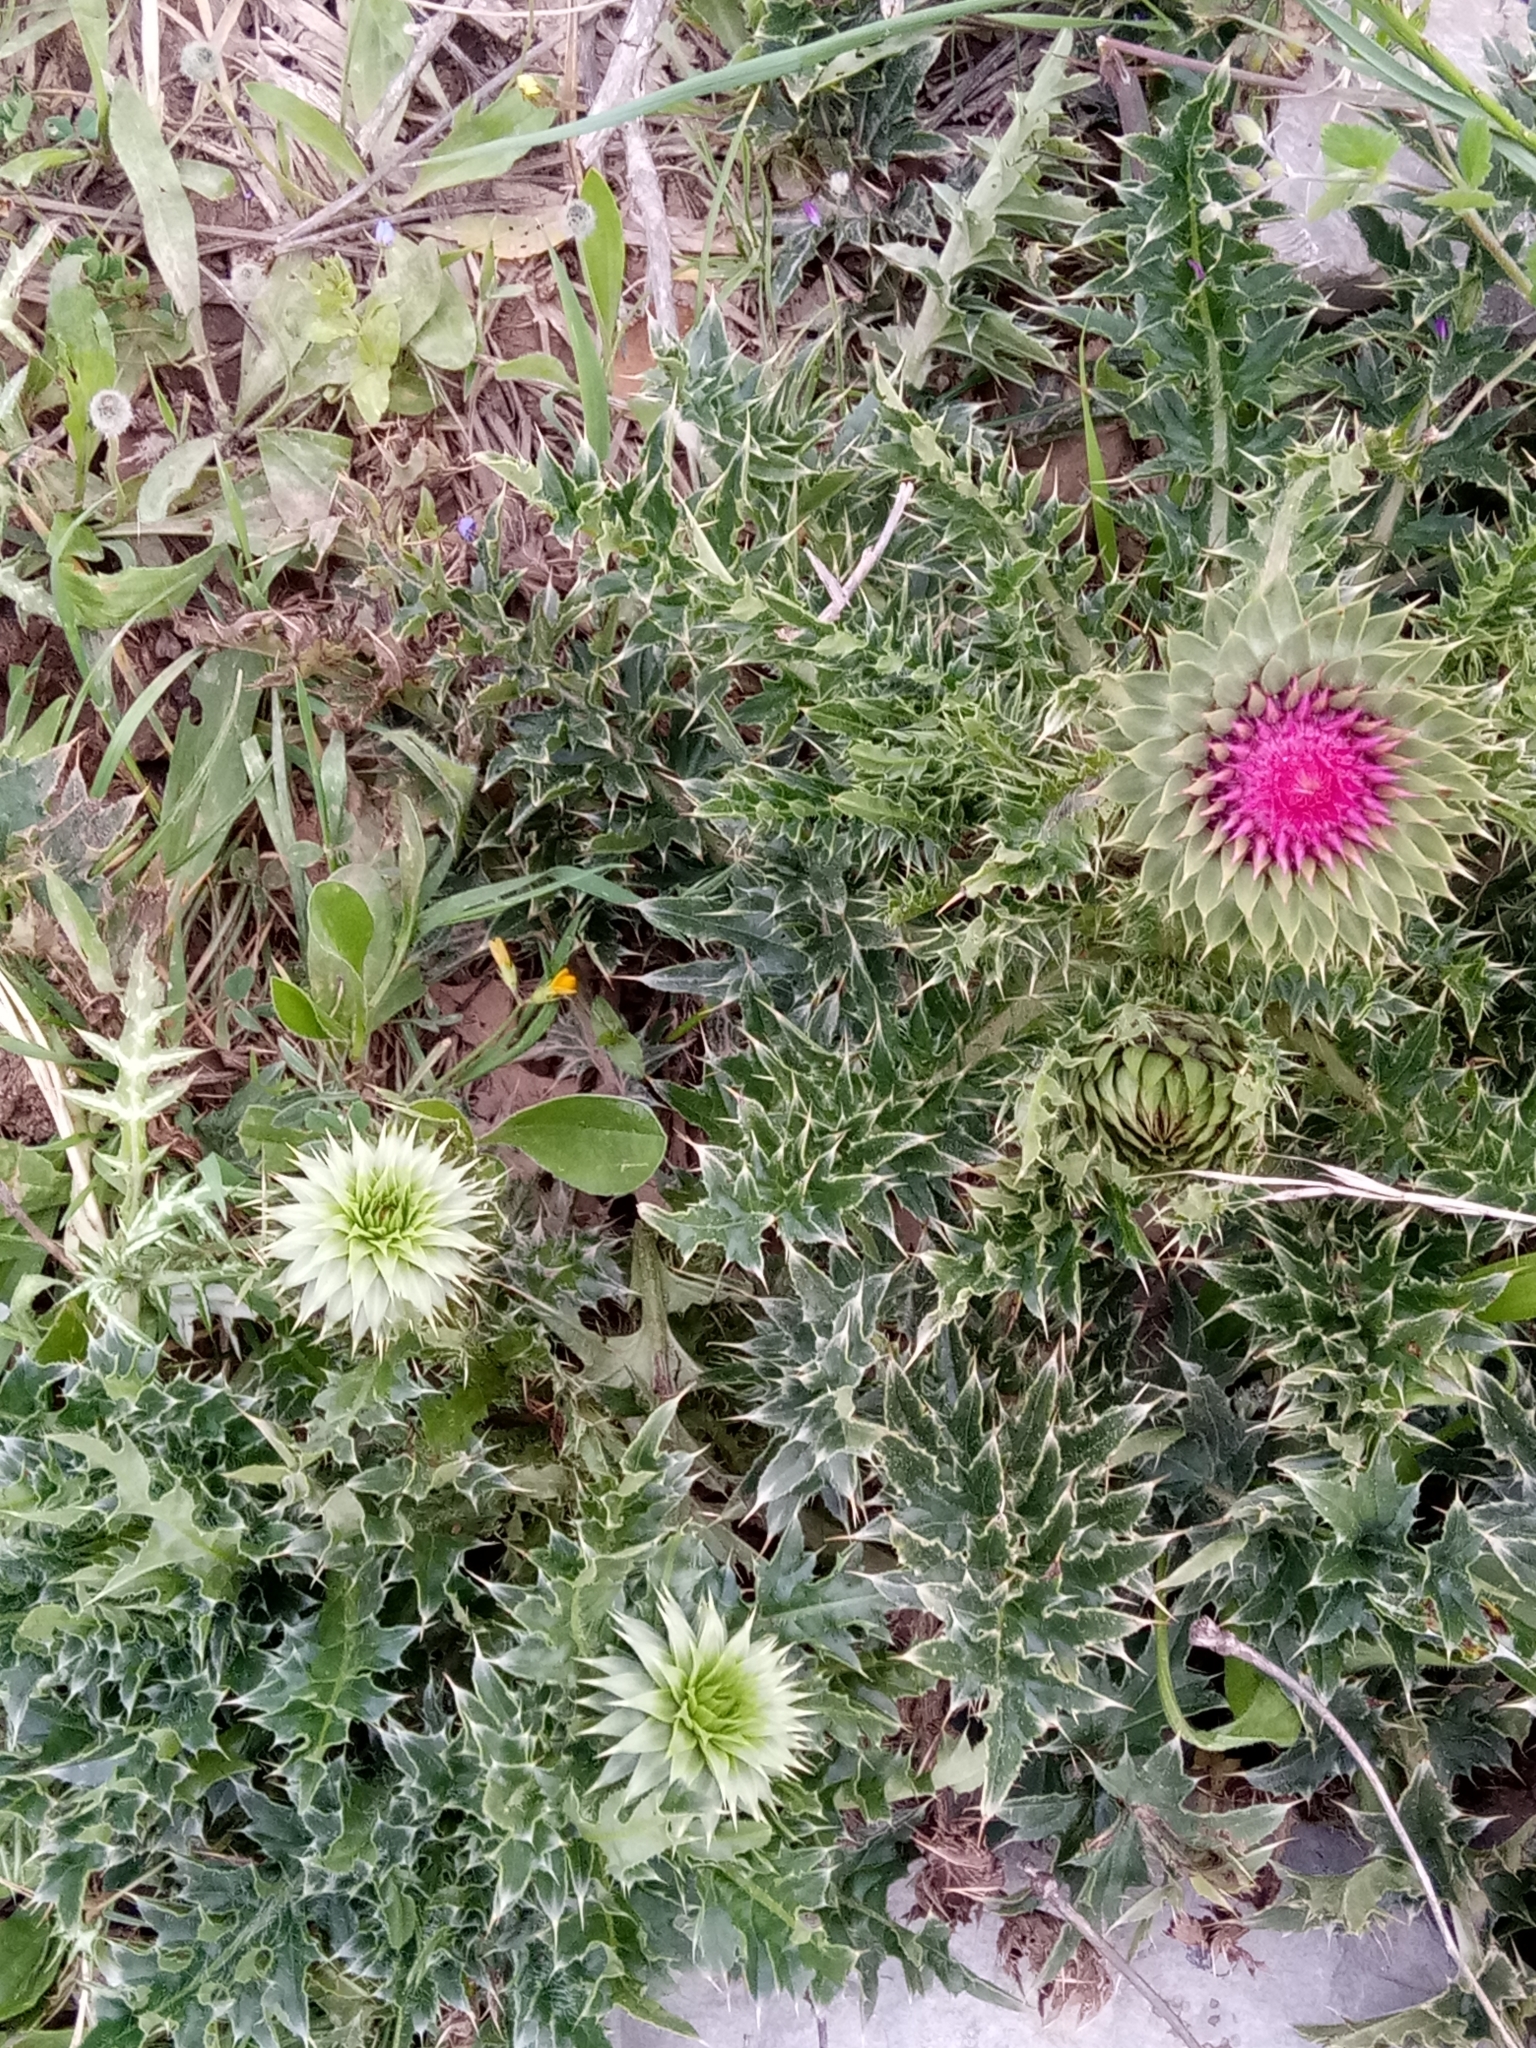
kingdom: Plantae
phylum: Tracheophyta
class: Magnoliopsida
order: Asterales
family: Asteraceae
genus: Carduus
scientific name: Carduus macrocephalus
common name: Giant thistle
